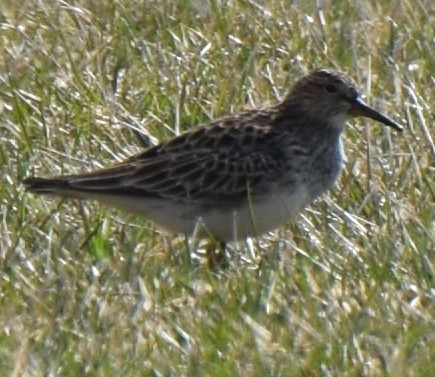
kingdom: Animalia
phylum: Chordata
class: Aves
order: Charadriiformes
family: Scolopacidae
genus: Calidris
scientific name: Calidris melanotos
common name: Pectoral sandpiper
